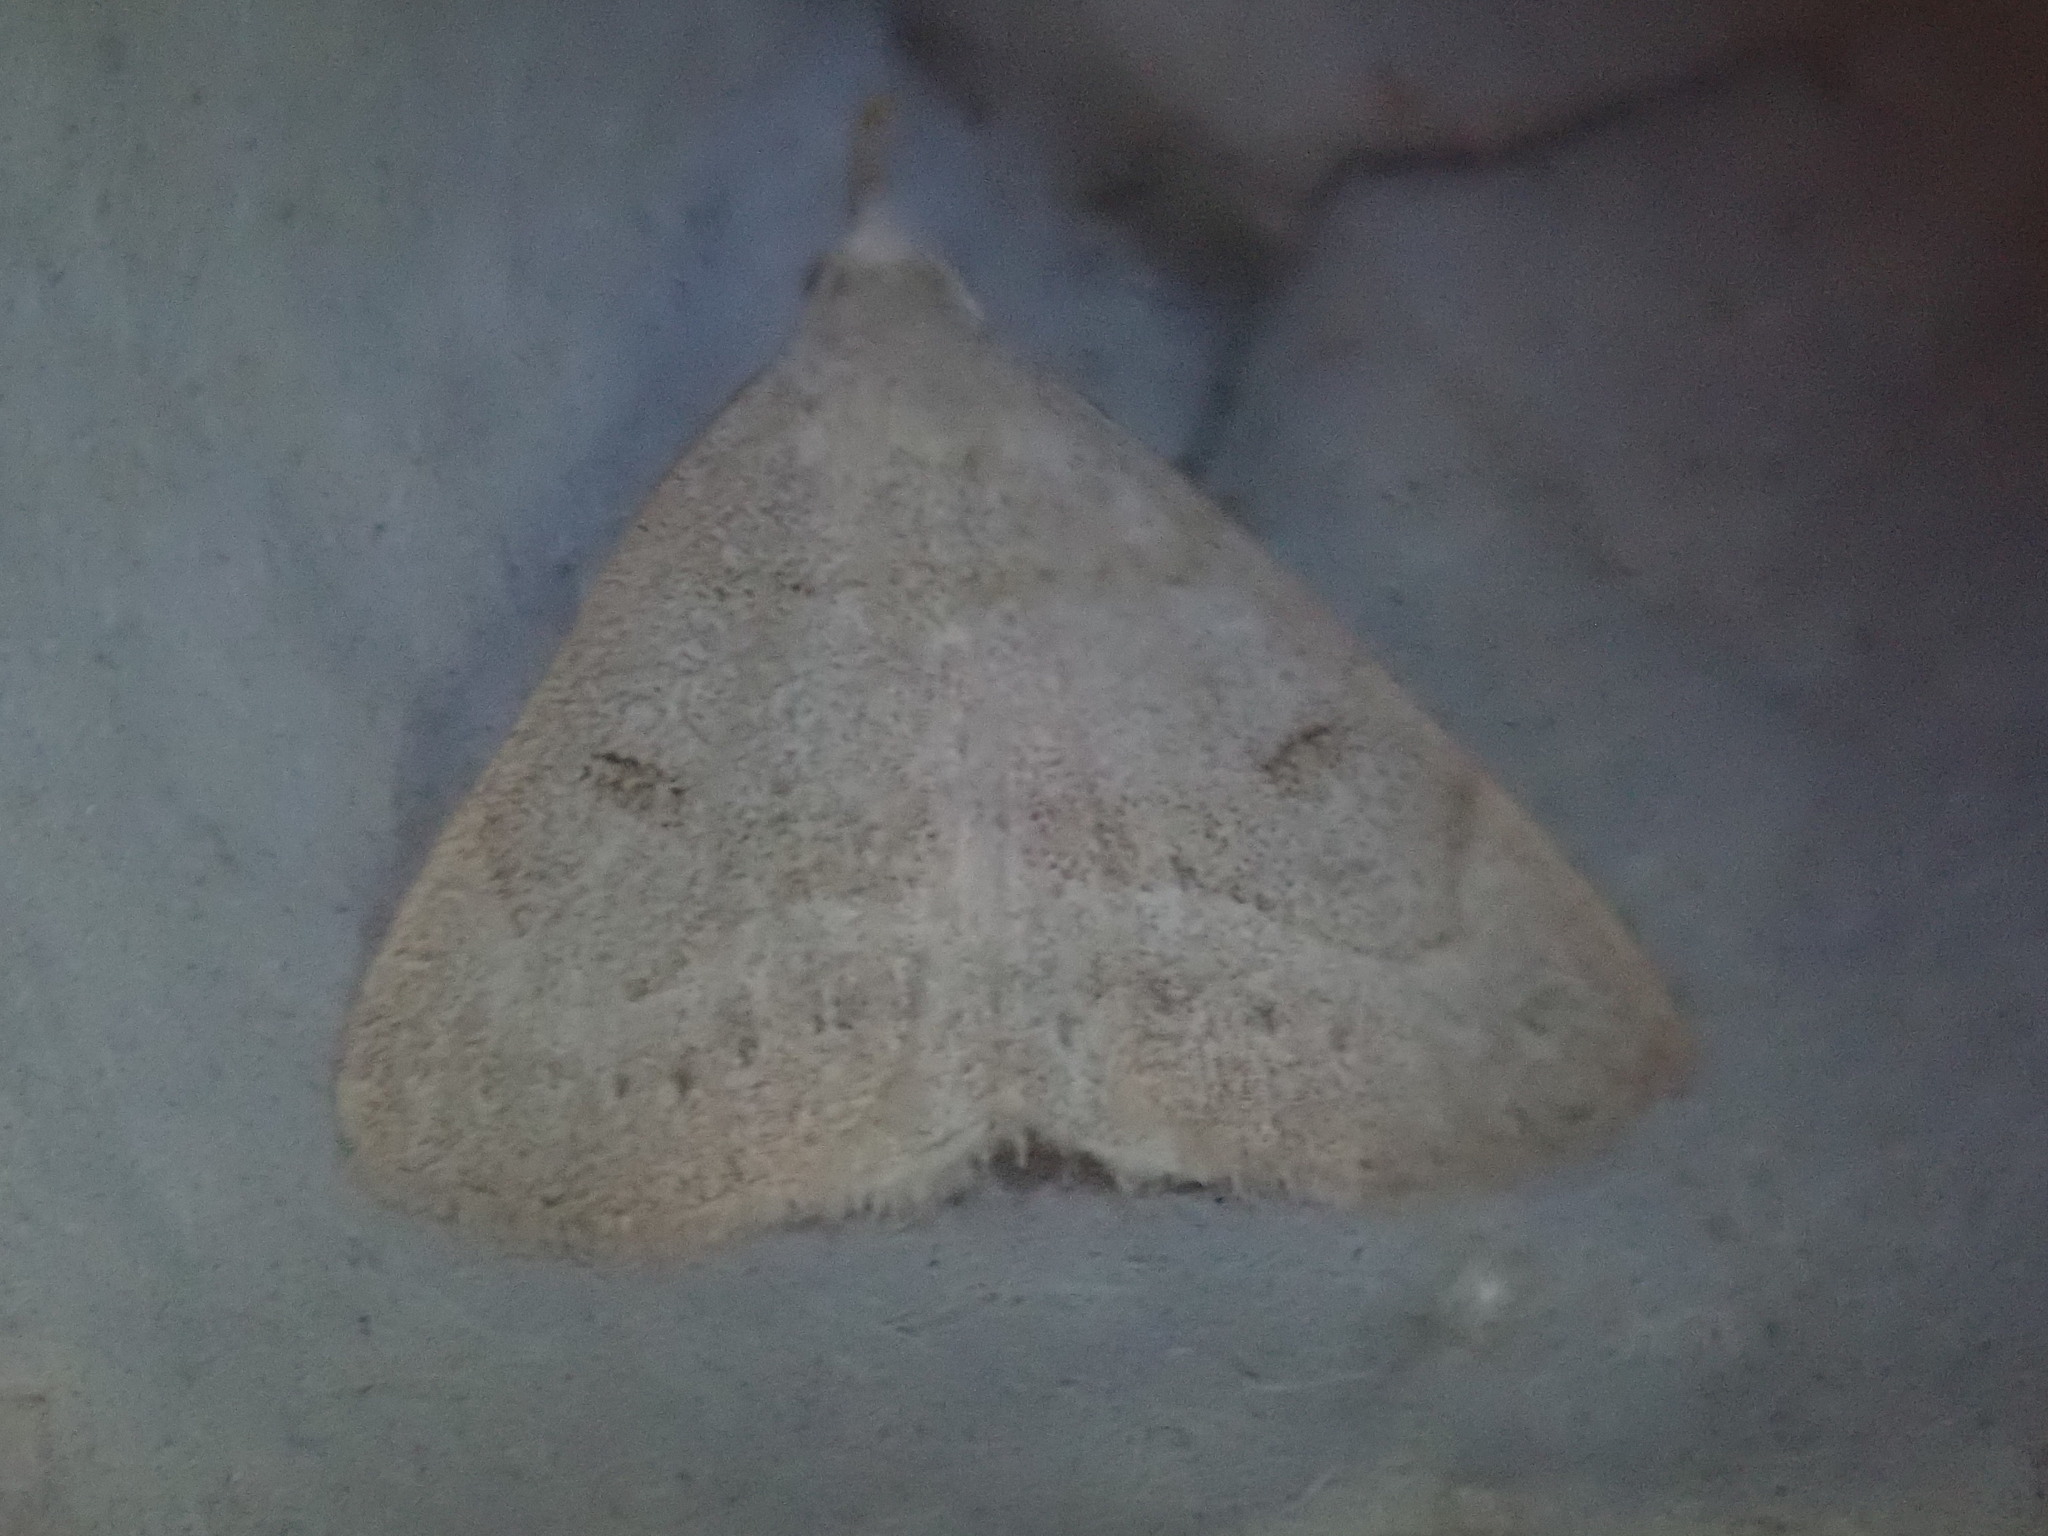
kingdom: Animalia
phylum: Arthropoda
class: Insecta
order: Lepidoptera
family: Erebidae
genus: Macrochilo
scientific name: Macrochilo morbidalis
